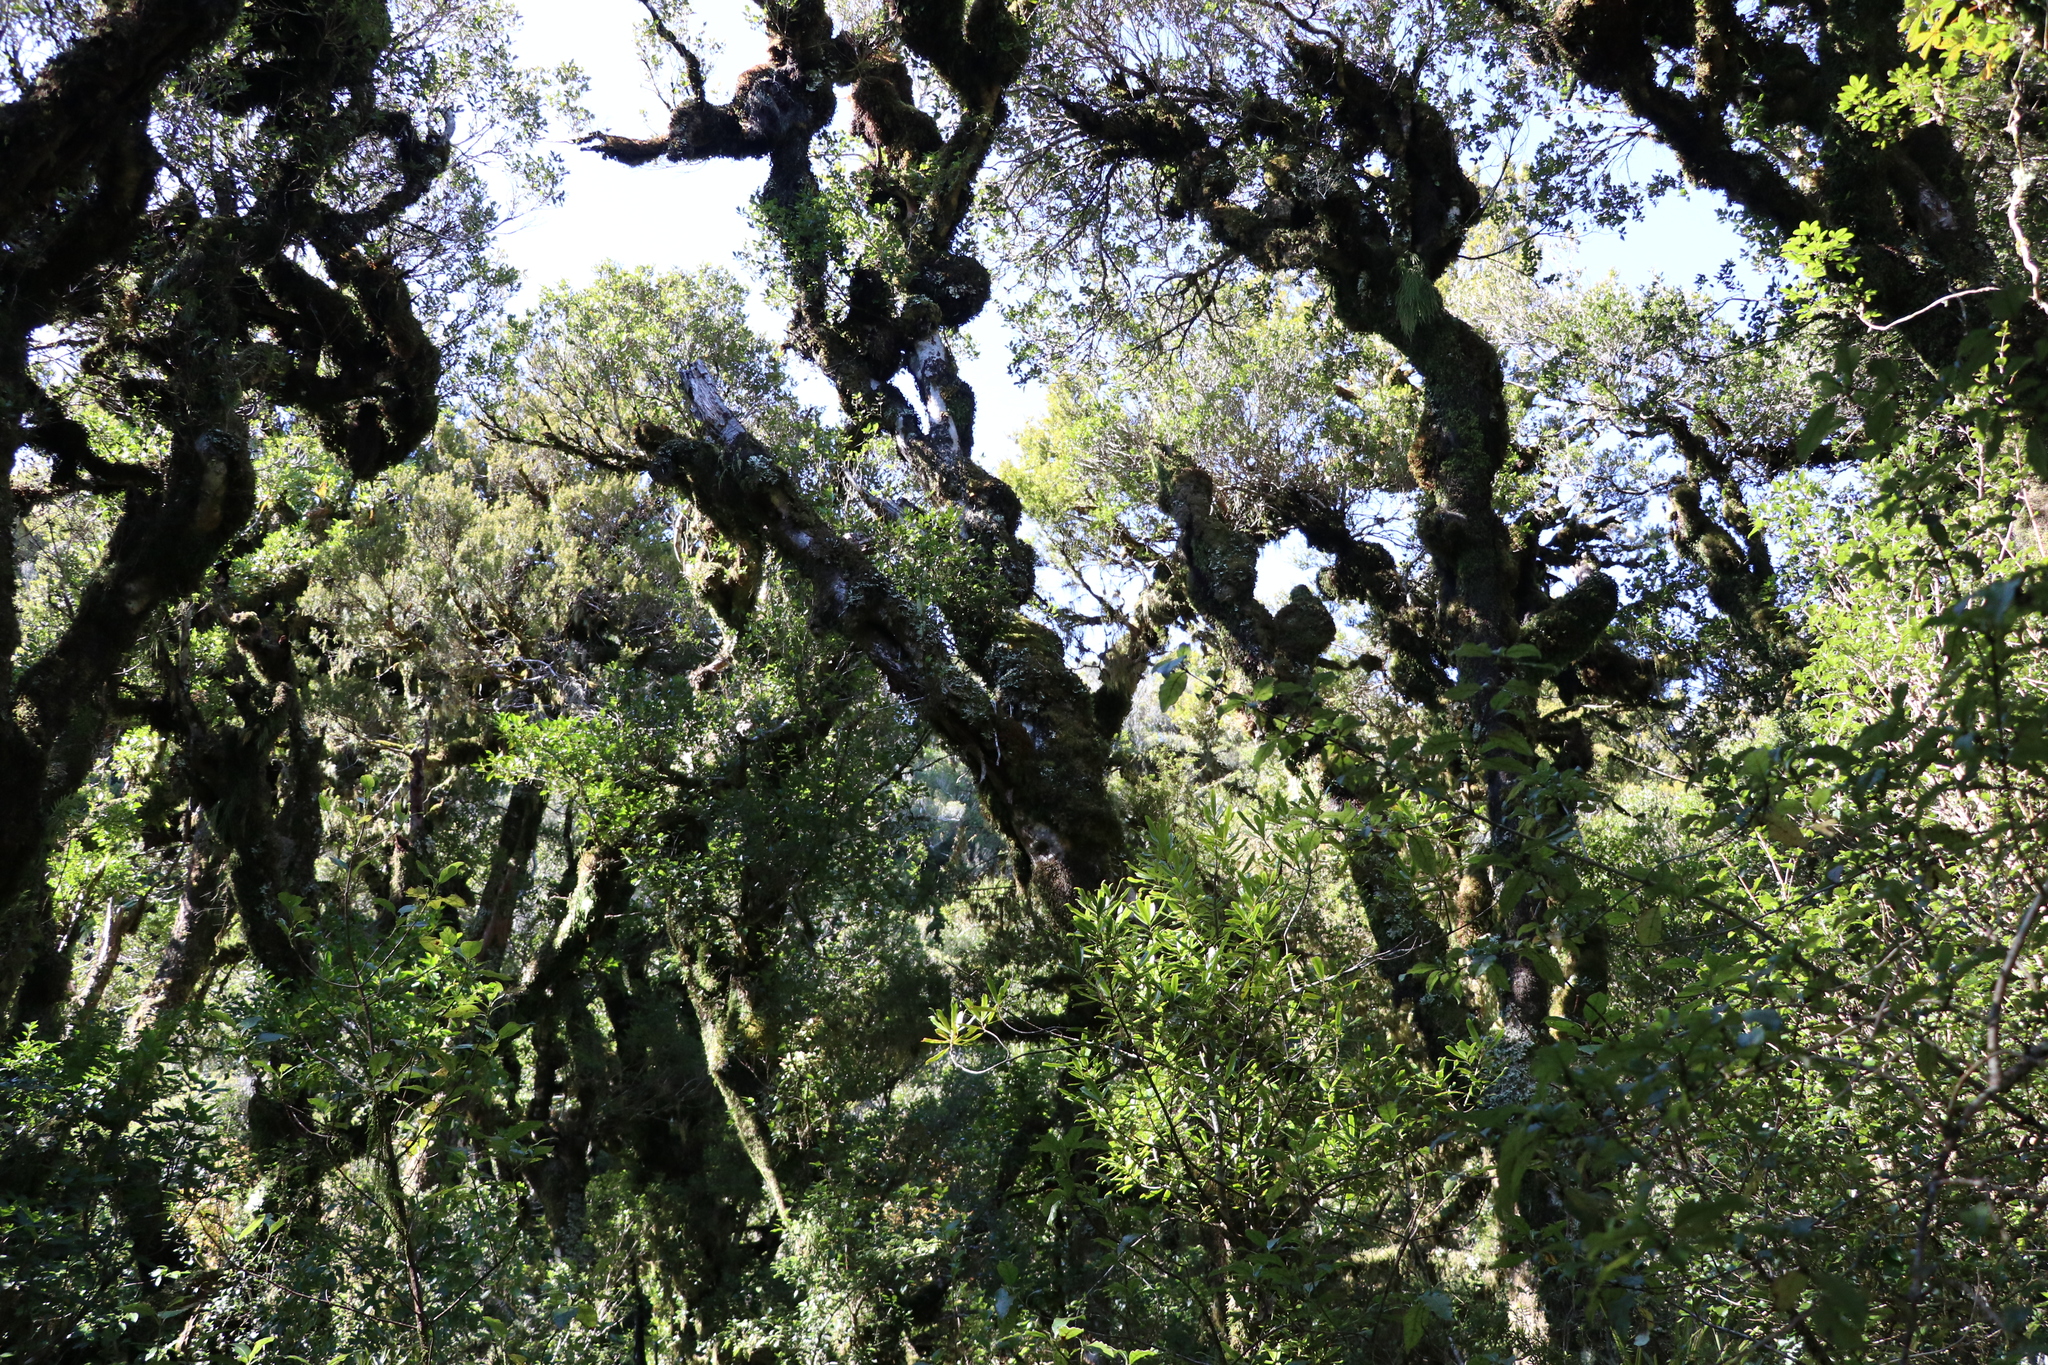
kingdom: Plantae
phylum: Tracheophyta
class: Magnoliopsida
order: Oxalidales
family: Cunoniaceae
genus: Pterophylla
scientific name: Pterophylla racemosa
